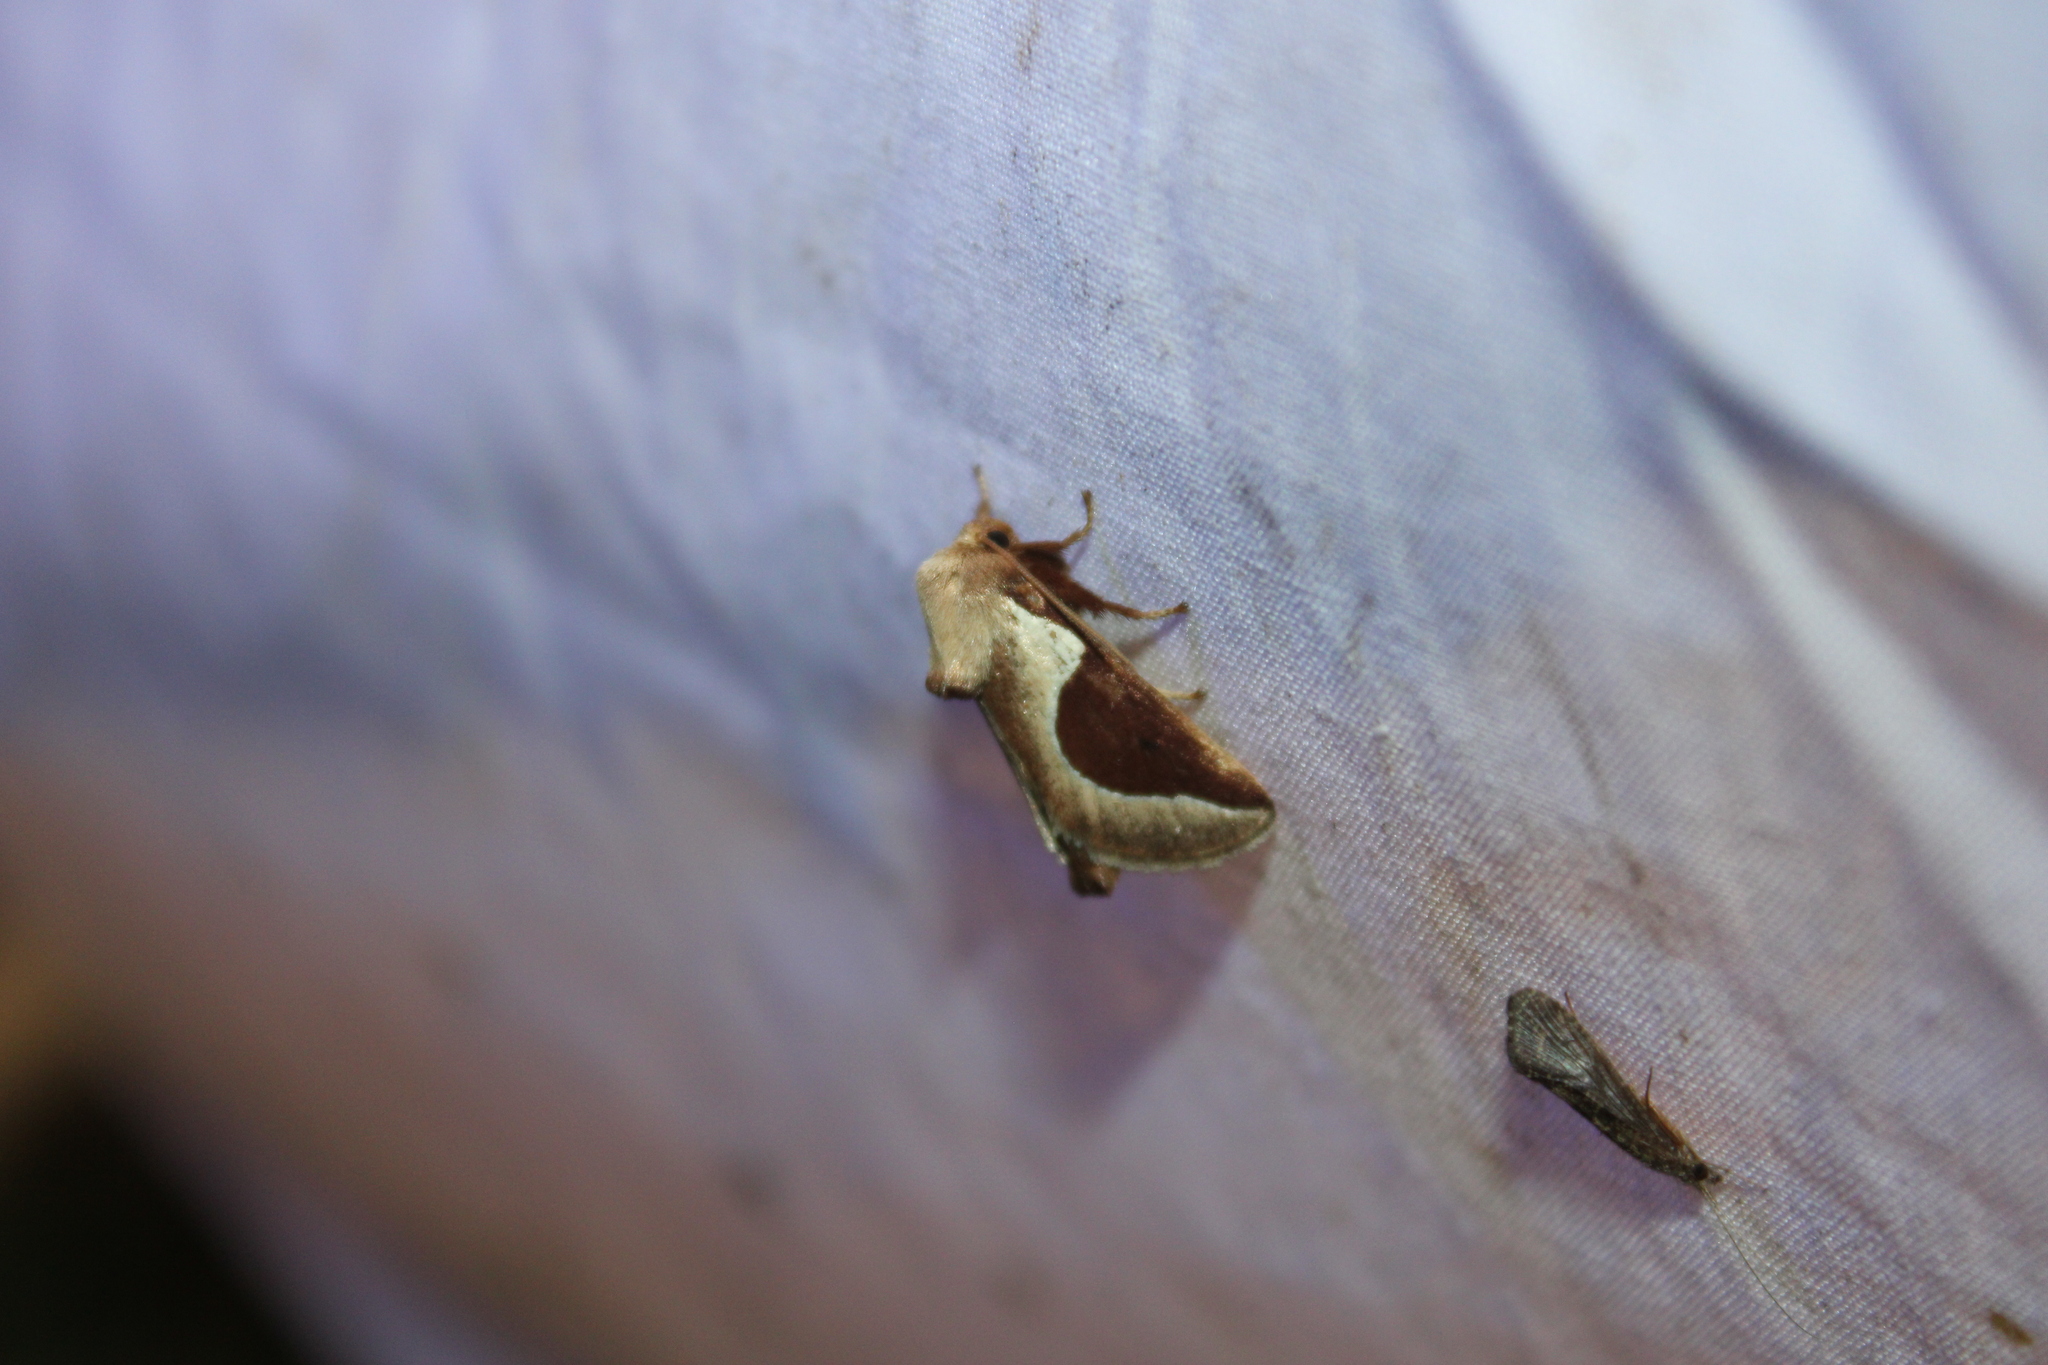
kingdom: Animalia
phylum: Arthropoda
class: Insecta
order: Lepidoptera
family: Limacodidae
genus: Prolimacodes
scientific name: Prolimacodes badia
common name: Skiff moth
